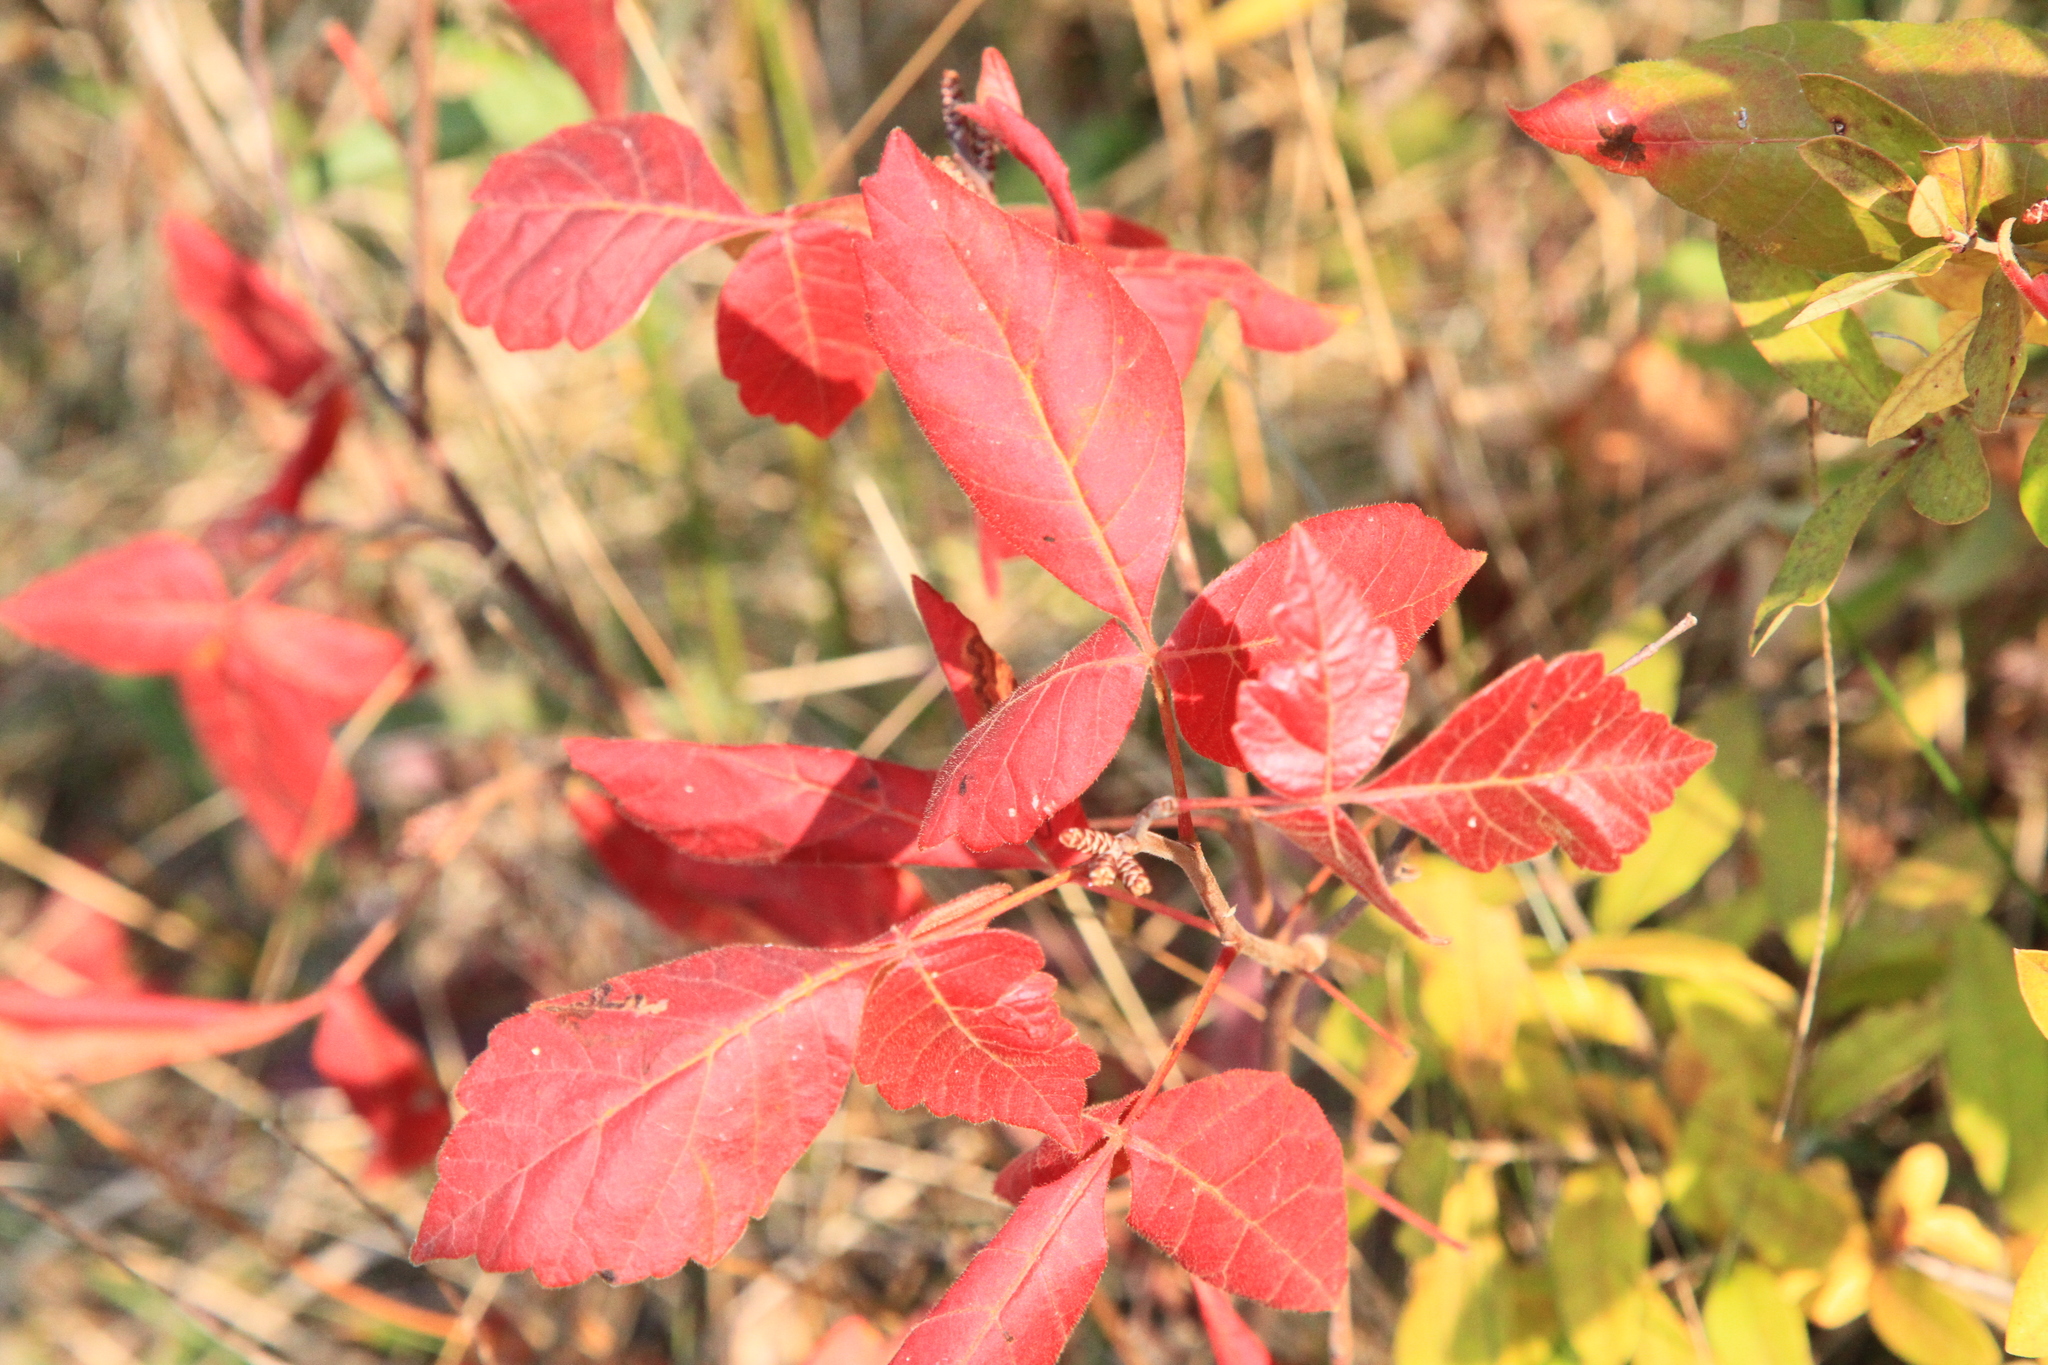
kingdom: Plantae
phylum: Tracheophyta
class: Magnoliopsida
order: Sapindales
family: Anacardiaceae
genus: Rhus
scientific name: Rhus aromatica
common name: Aromatic sumac
